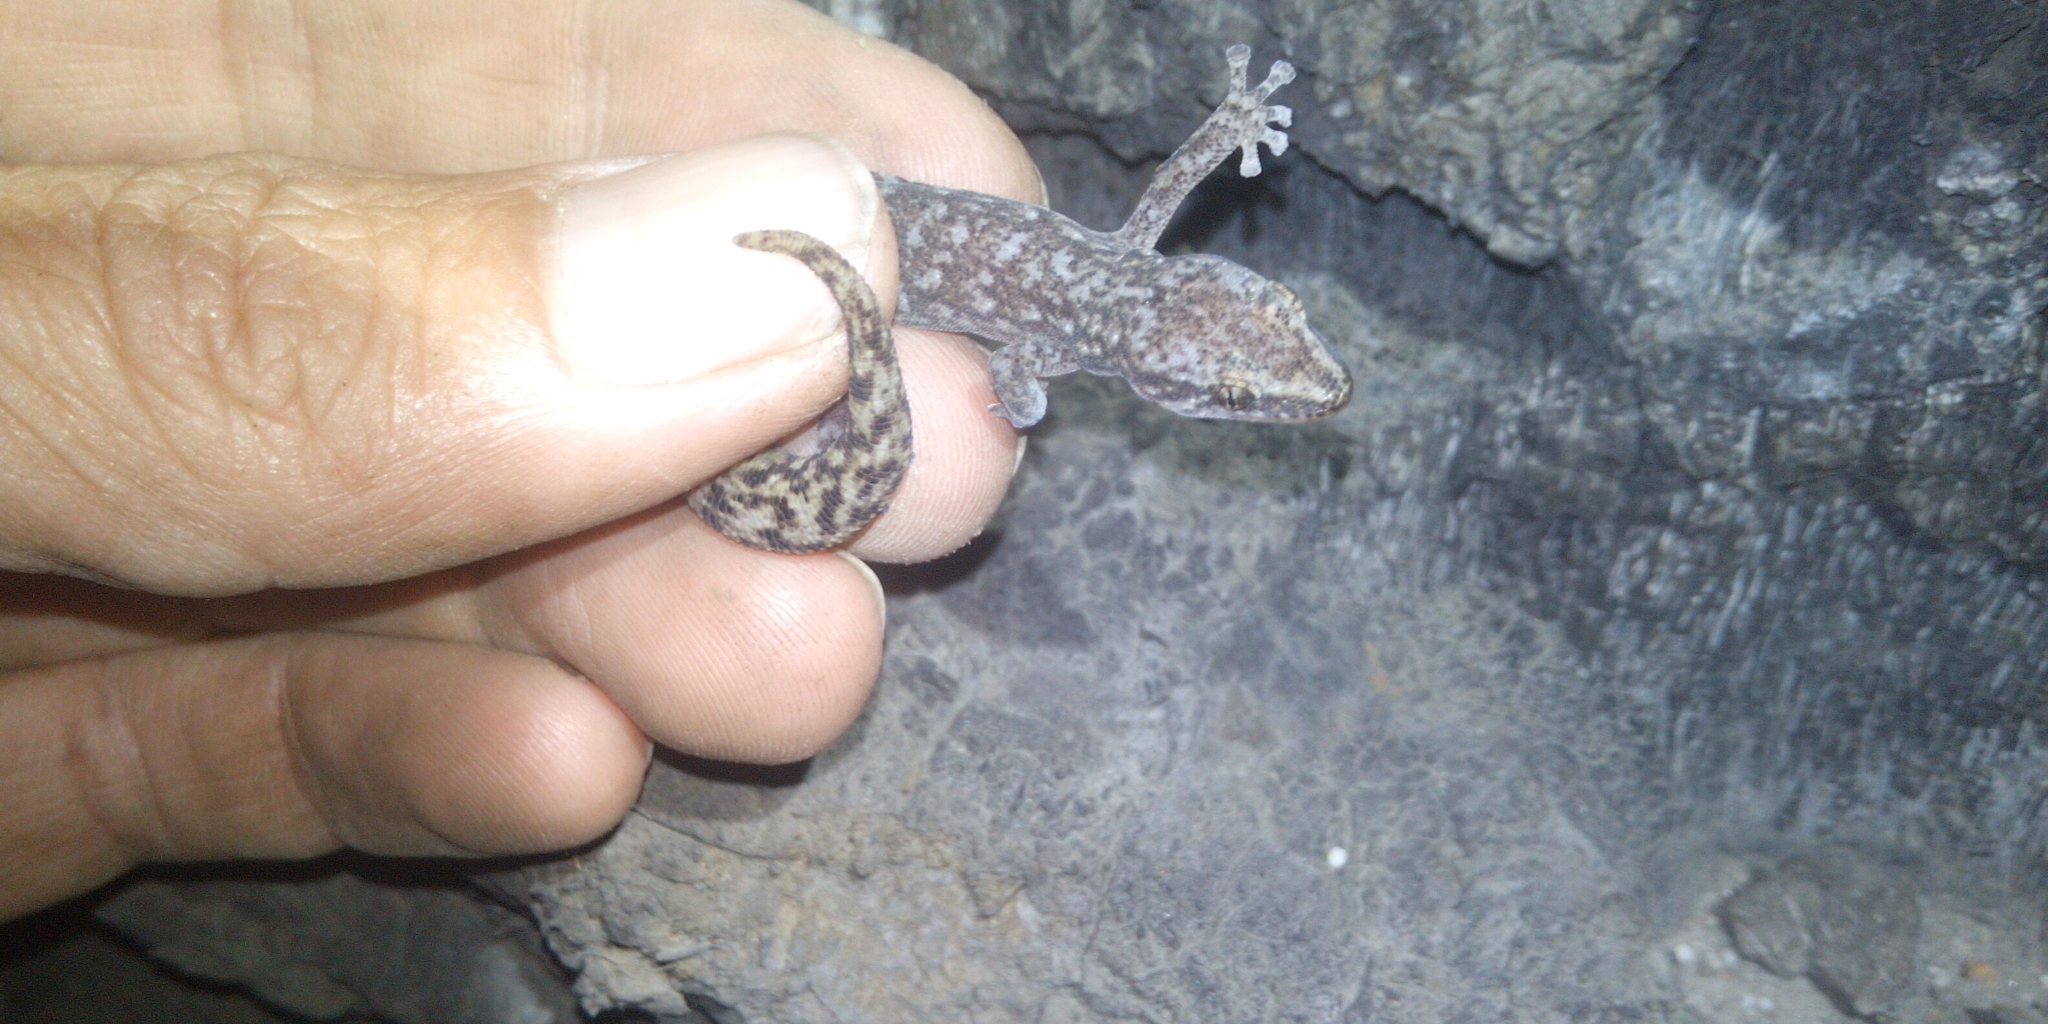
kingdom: Animalia
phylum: Chordata
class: Squamata
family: Gekkonidae
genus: Afrogecko
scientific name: Afrogecko porphyreus
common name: Marbled leaf-toed gecko
